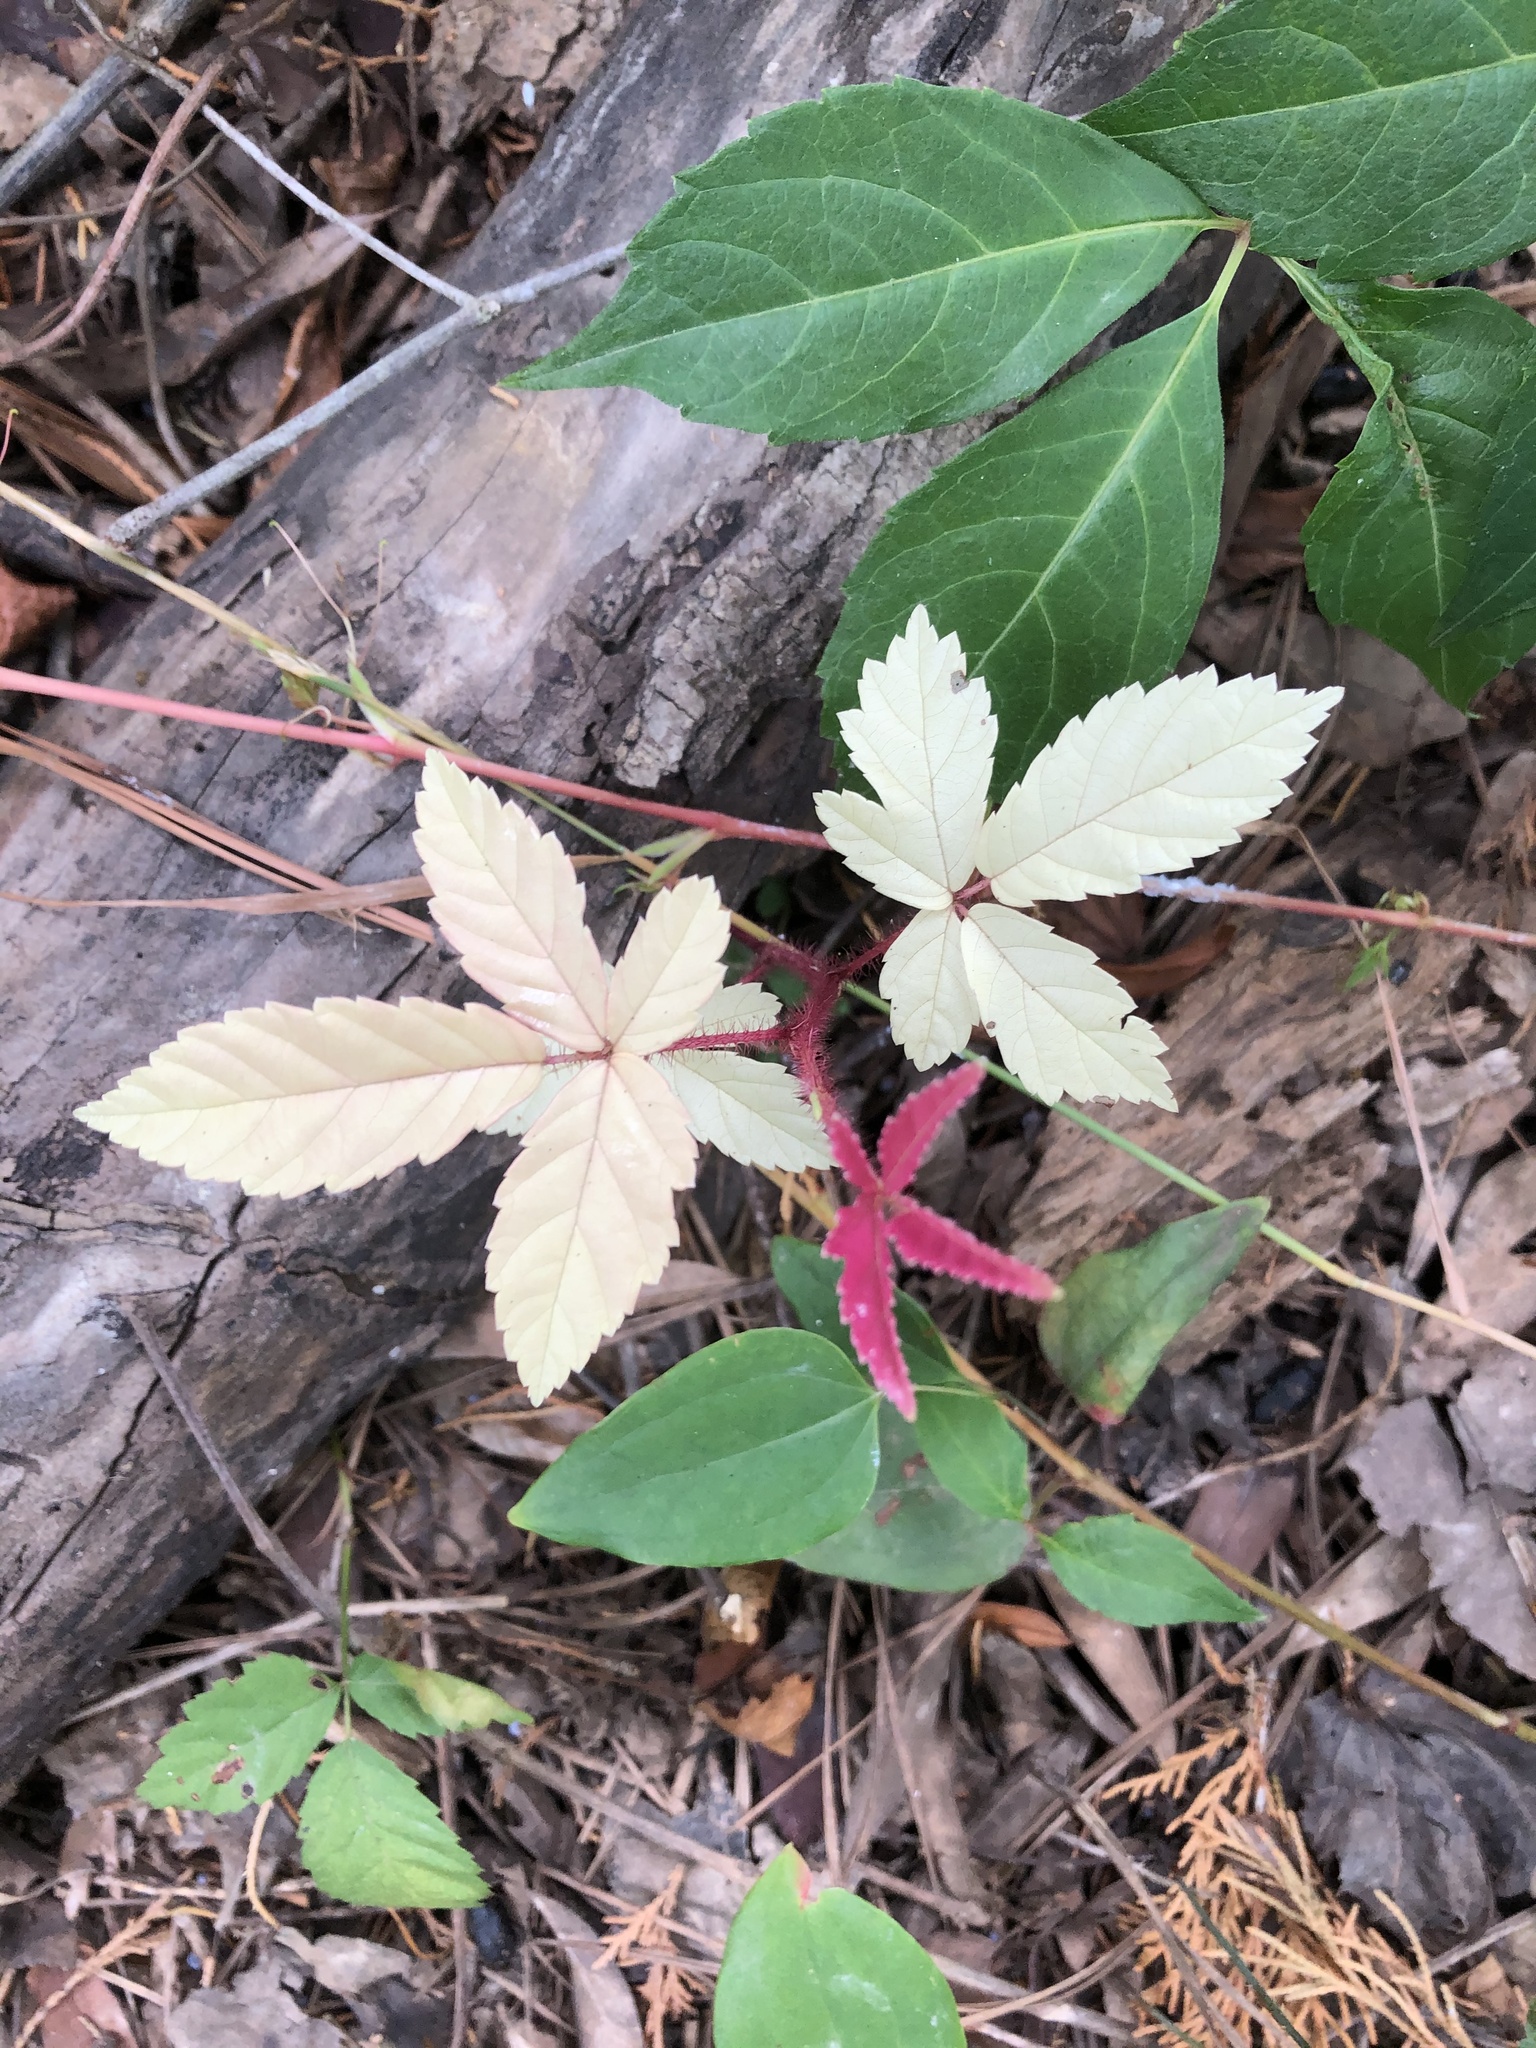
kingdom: Plantae
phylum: Tracheophyta
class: Magnoliopsida
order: Rosales
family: Rosaceae
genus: Rubus
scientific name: Rubus trivialis
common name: Southern dewberry
